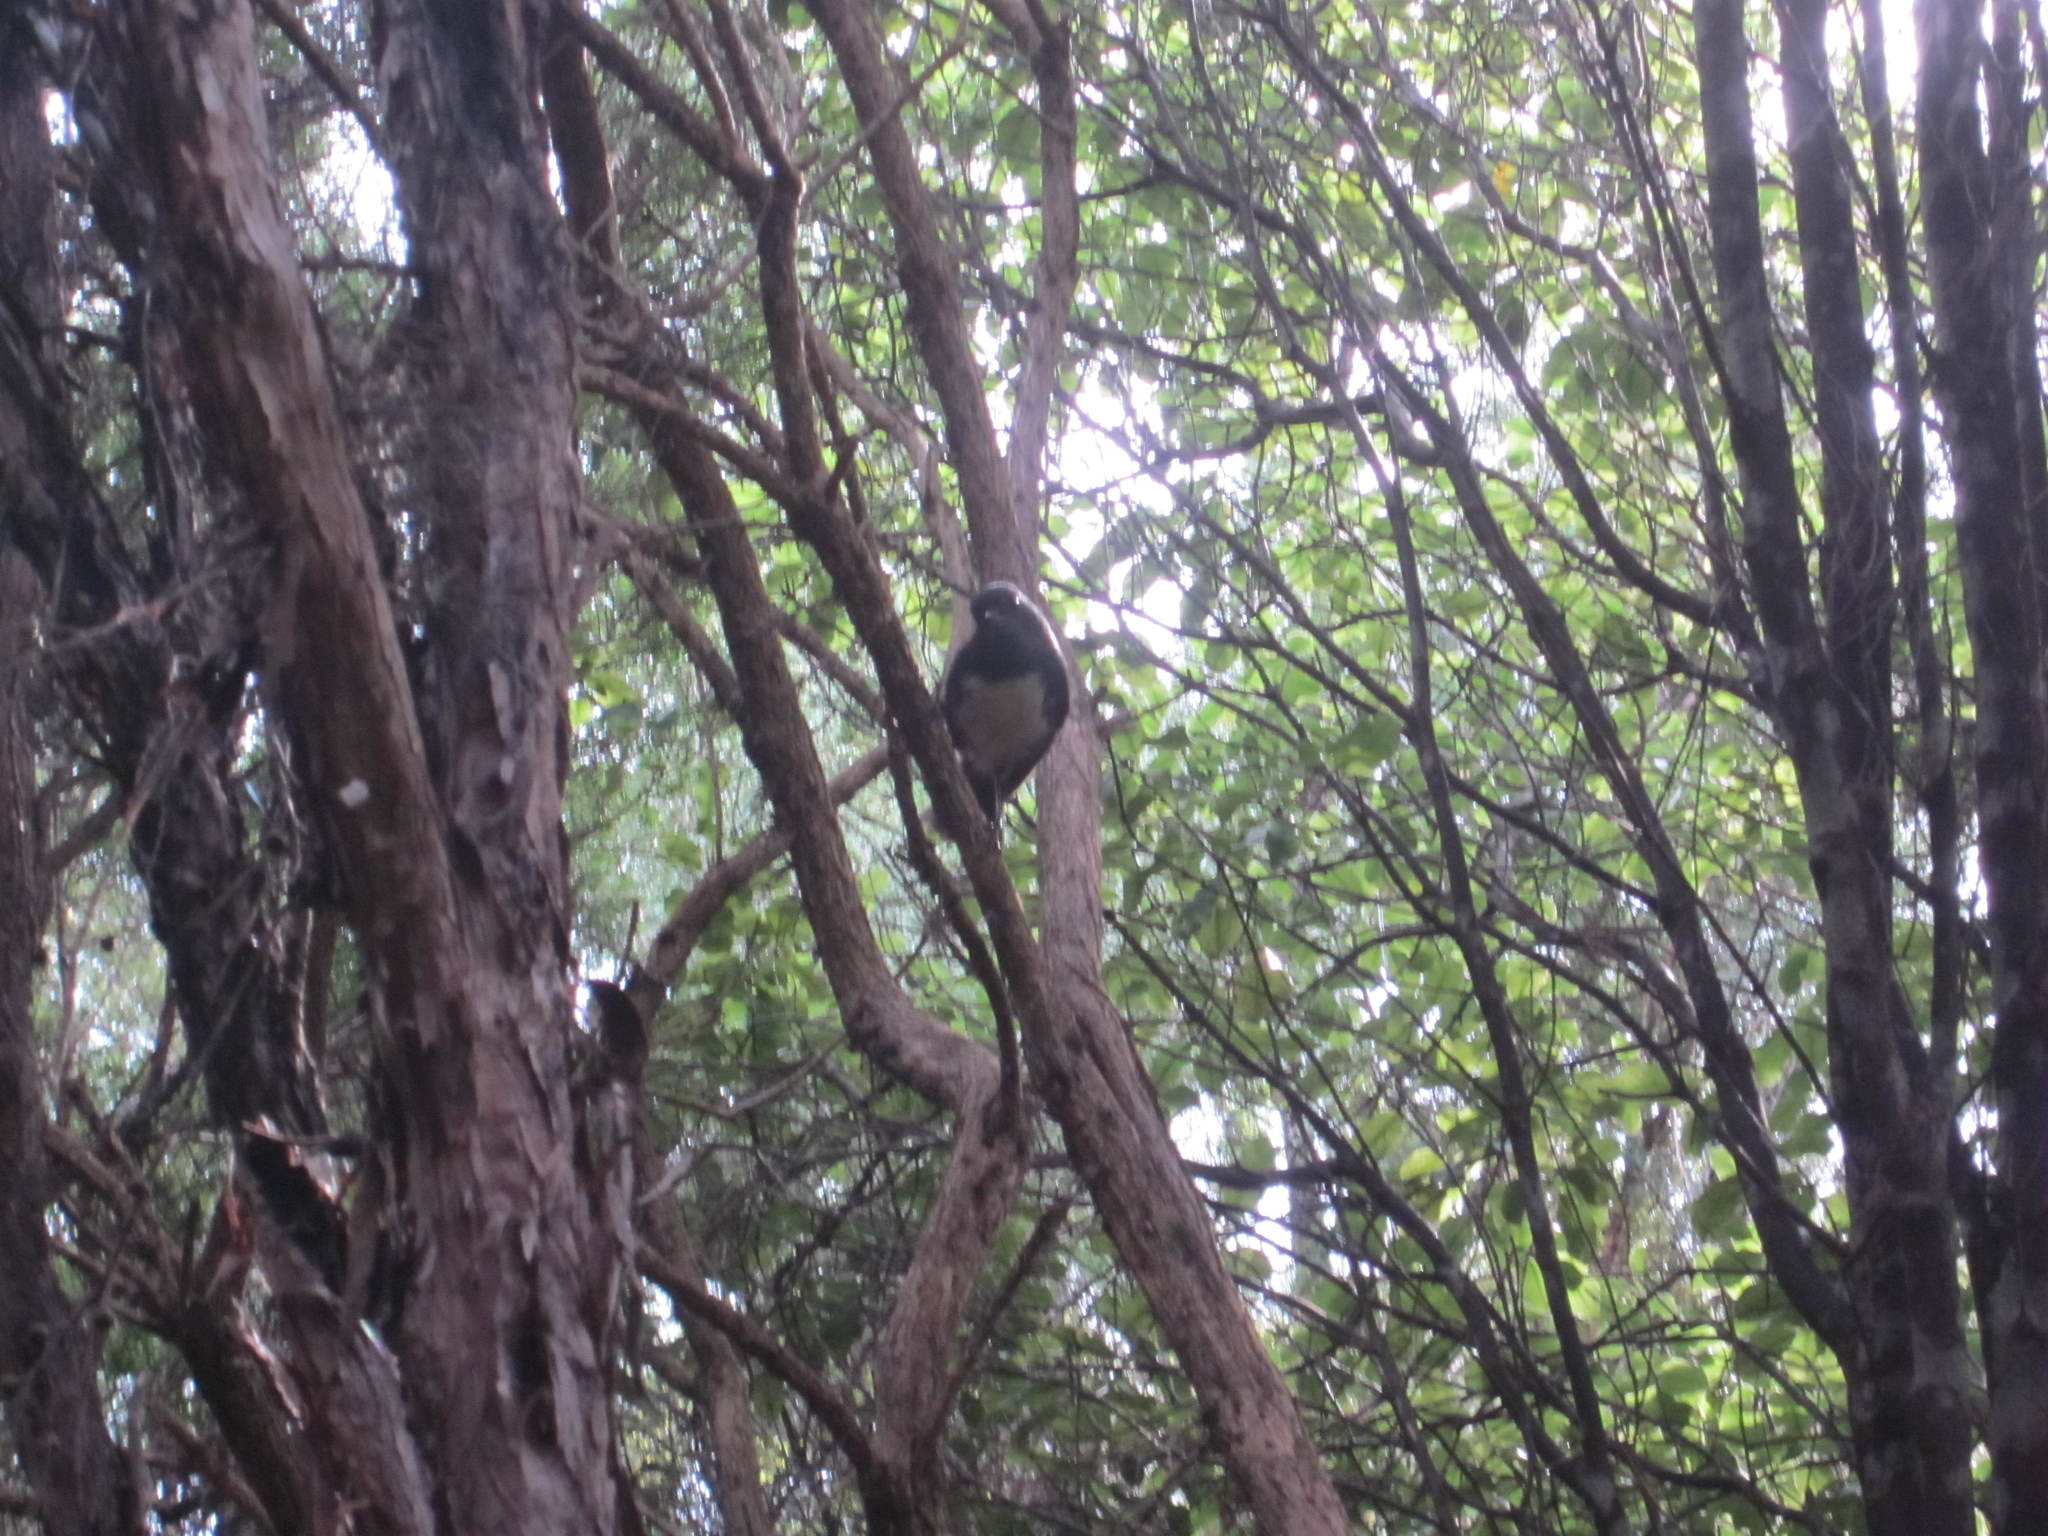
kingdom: Animalia
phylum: Chordata
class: Aves
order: Passeriformes
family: Petroicidae
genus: Petroica
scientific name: Petroica australis
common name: New zealand robin
